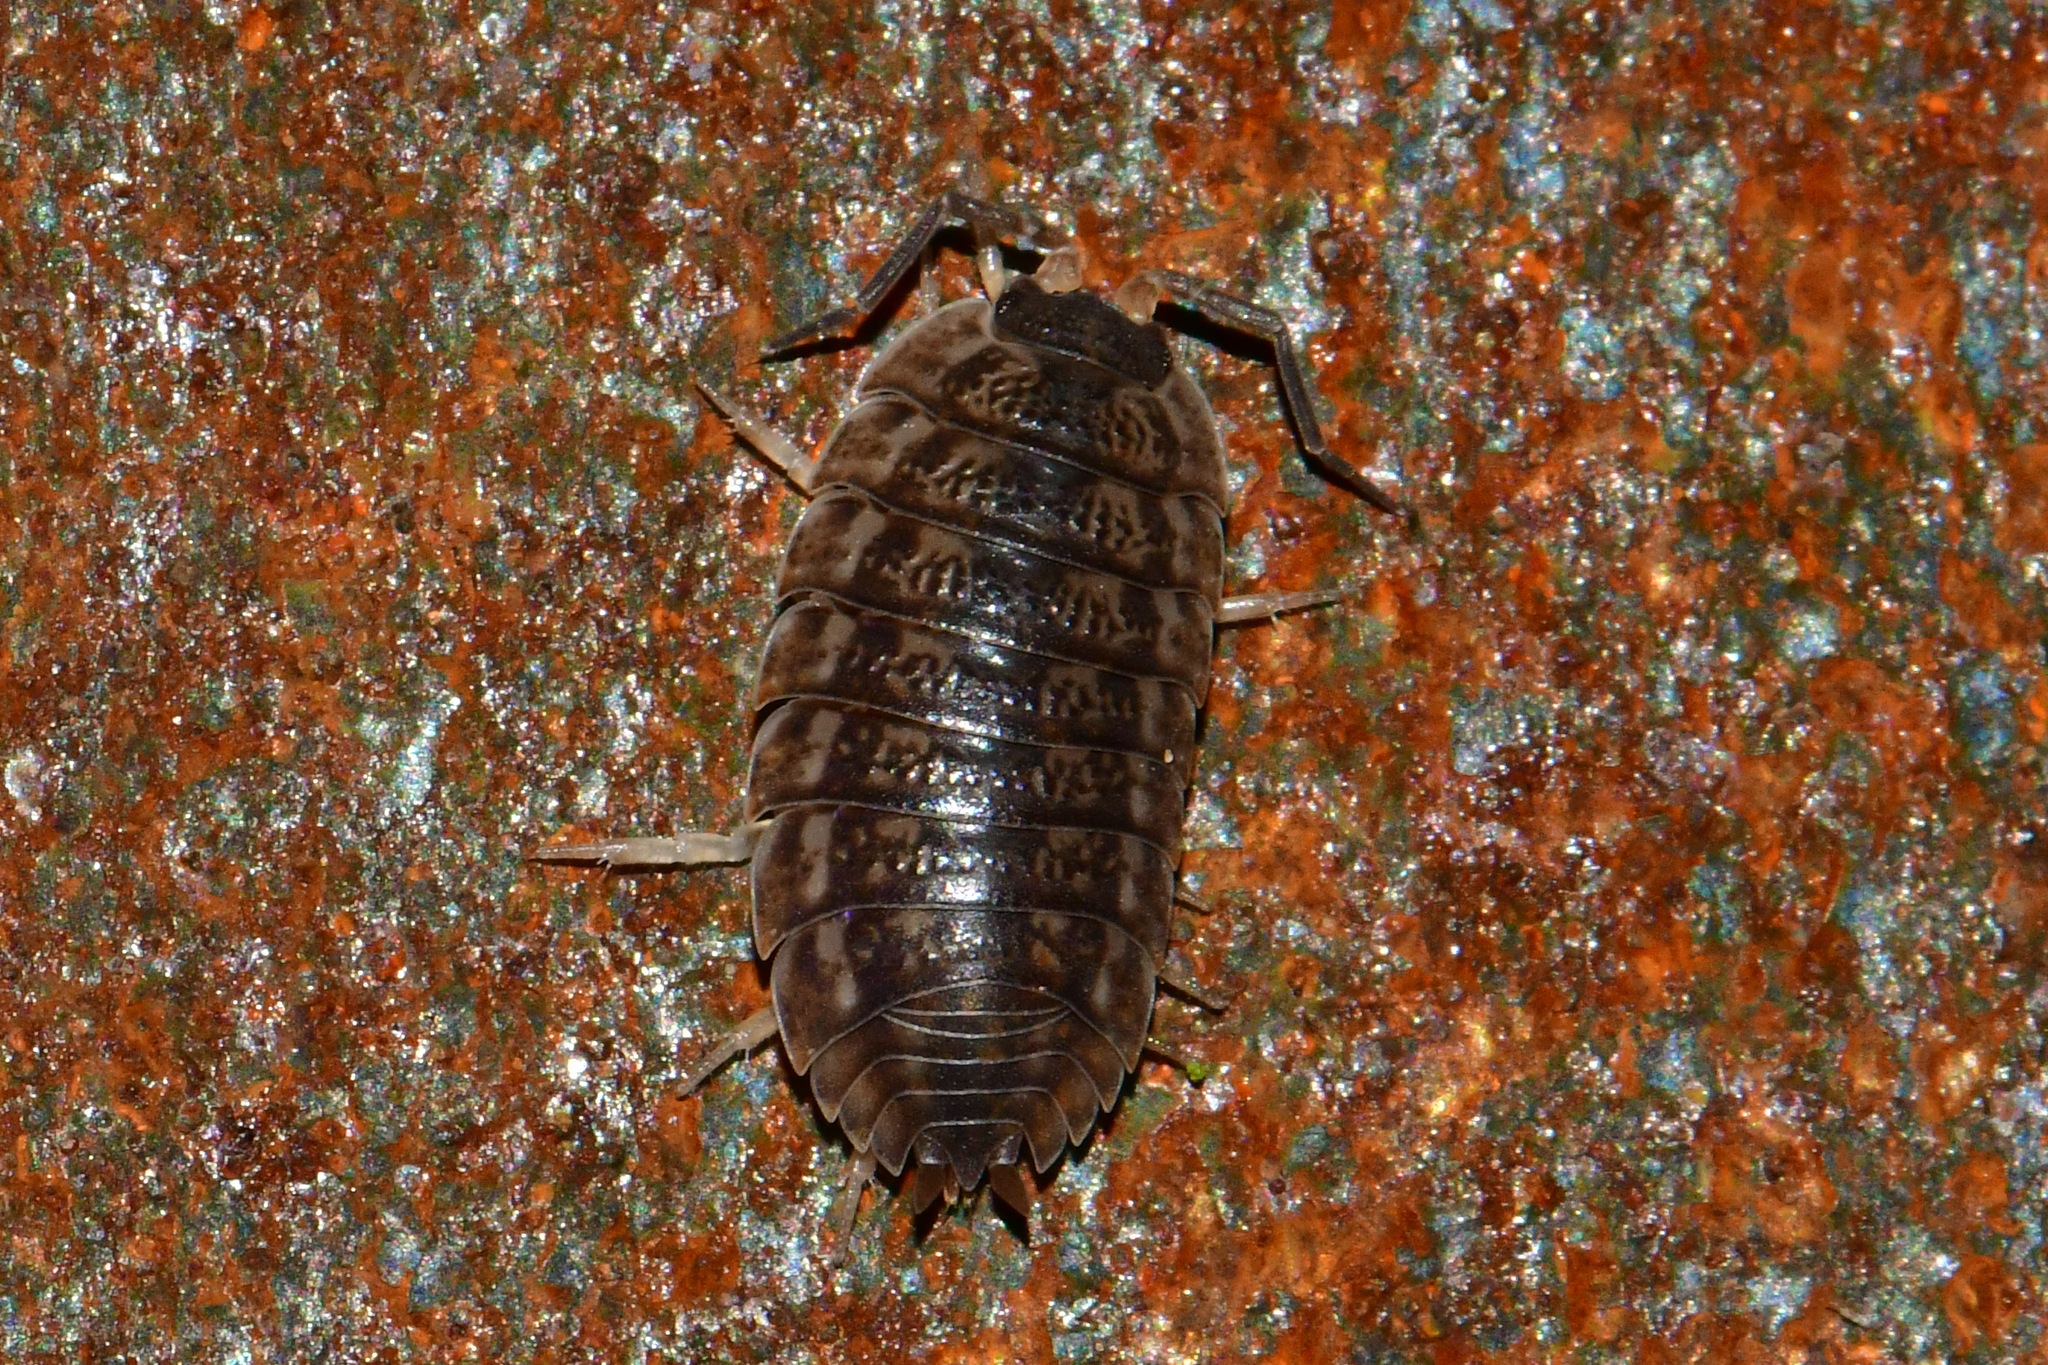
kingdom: Animalia
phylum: Arthropoda
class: Malacostraca
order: Isopoda
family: Trachelipodidae
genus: Trachelipus
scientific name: Trachelipus rathkii
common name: Isopod
